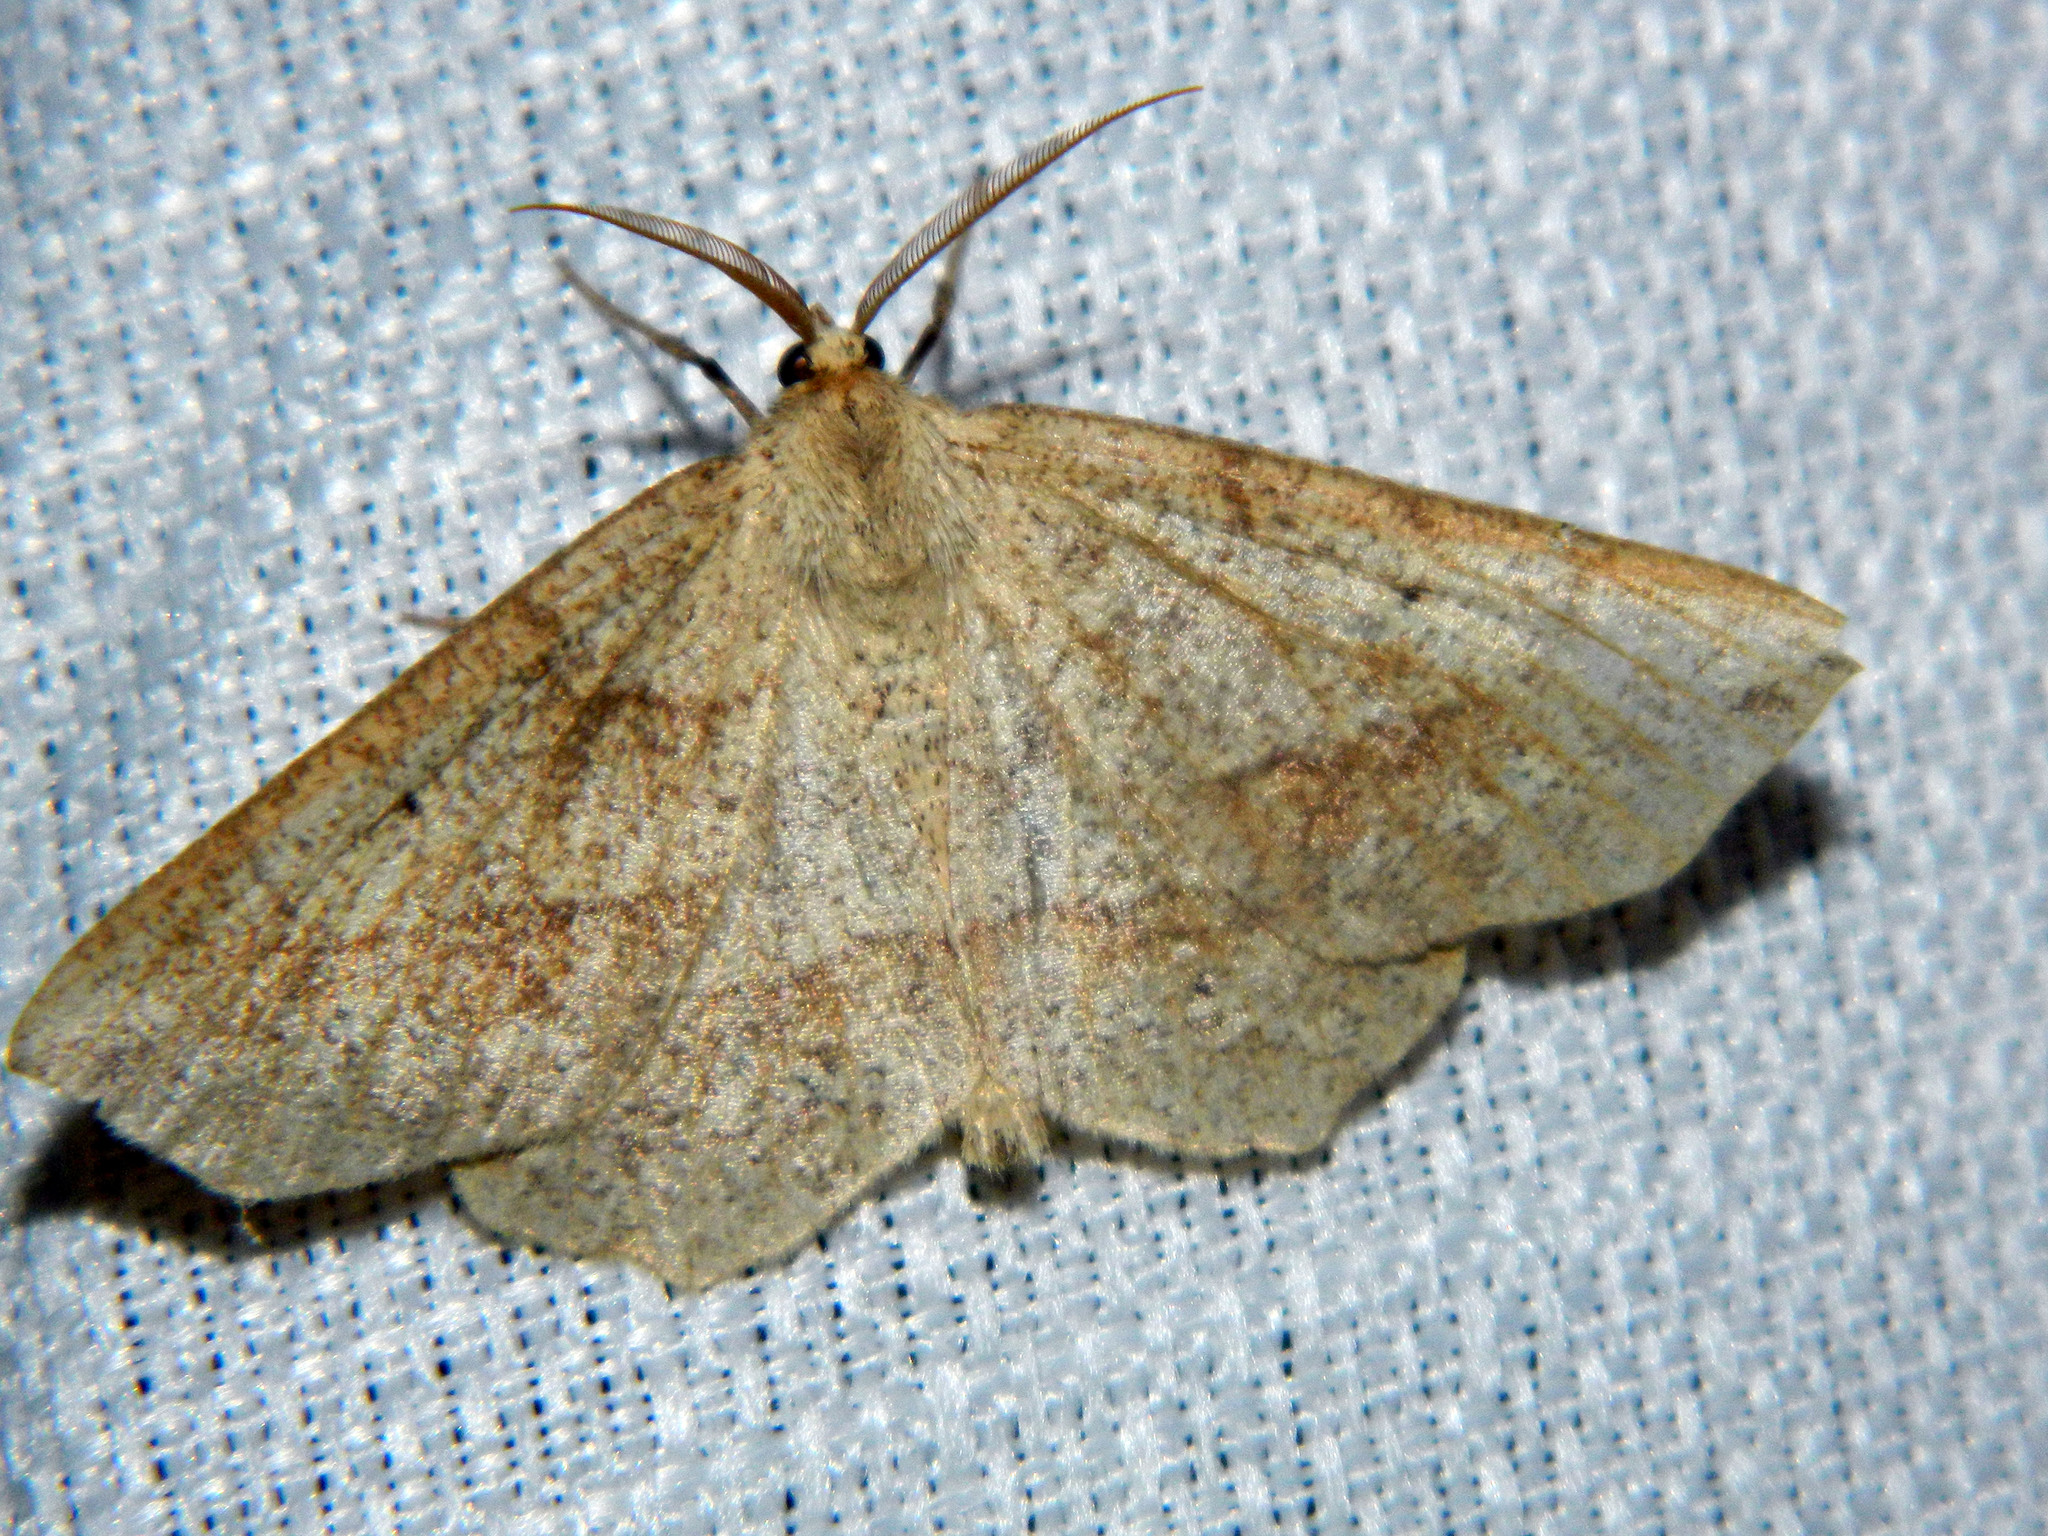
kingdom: Animalia
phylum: Arthropoda
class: Insecta
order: Lepidoptera
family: Geometridae
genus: Euchlaena
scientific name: Euchlaena marginaria
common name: Ochre euchlaena moth
